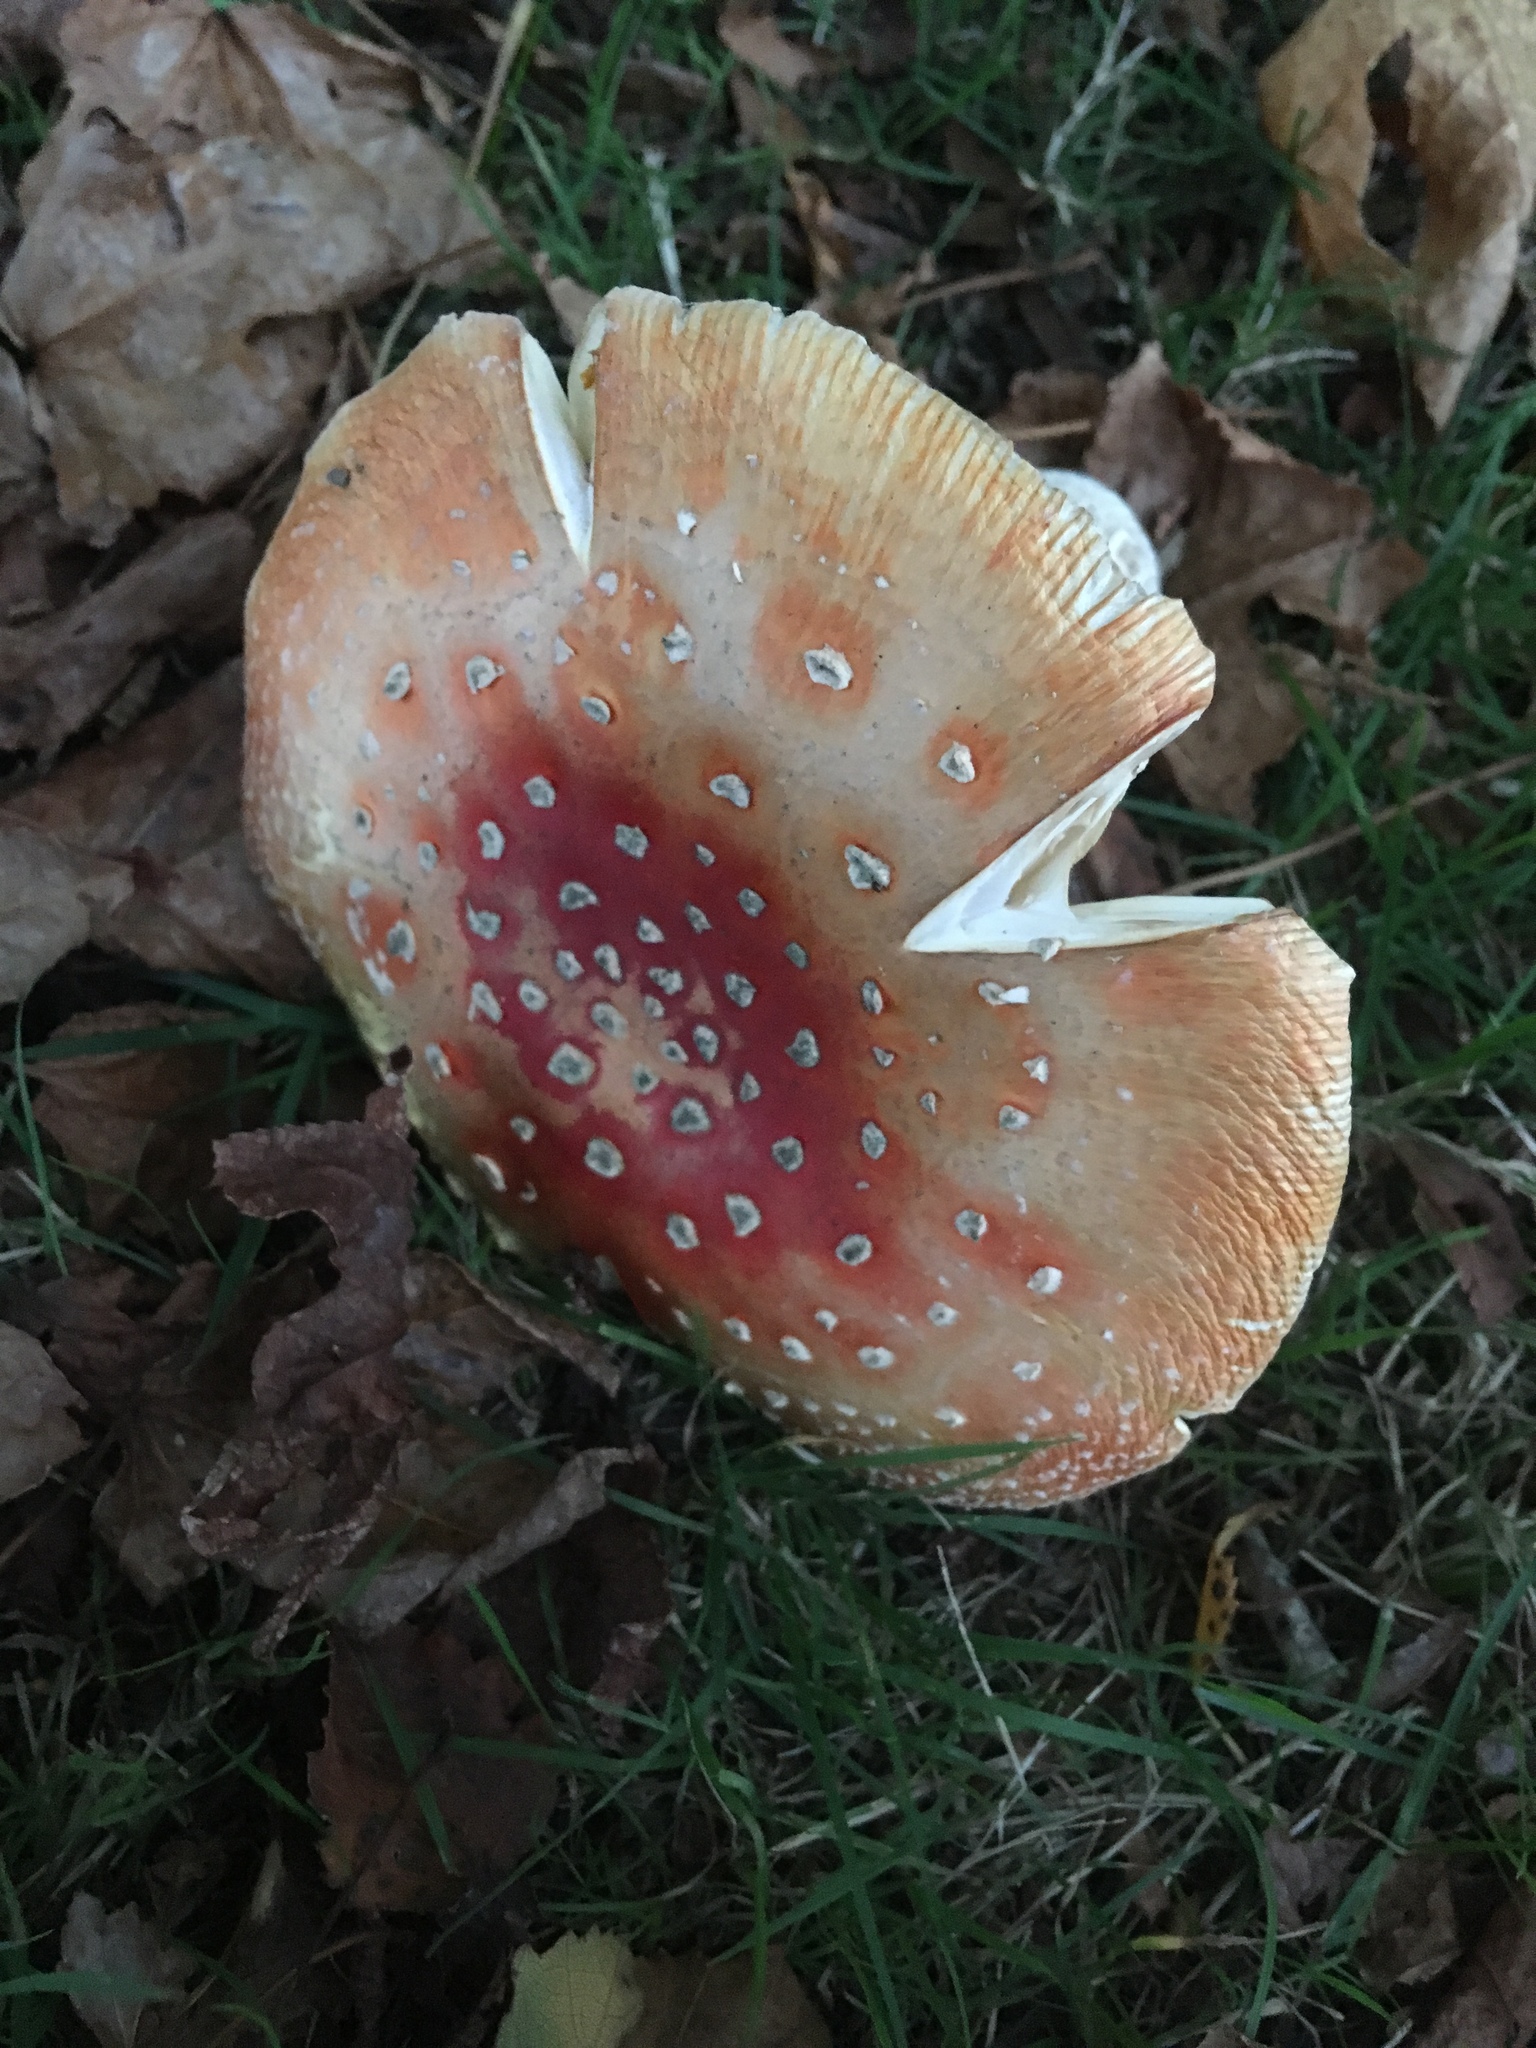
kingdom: Fungi
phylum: Basidiomycota
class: Agaricomycetes
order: Agaricales
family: Amanitaceae
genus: Amanita
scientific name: Amanita muscaria
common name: Fly agaric
